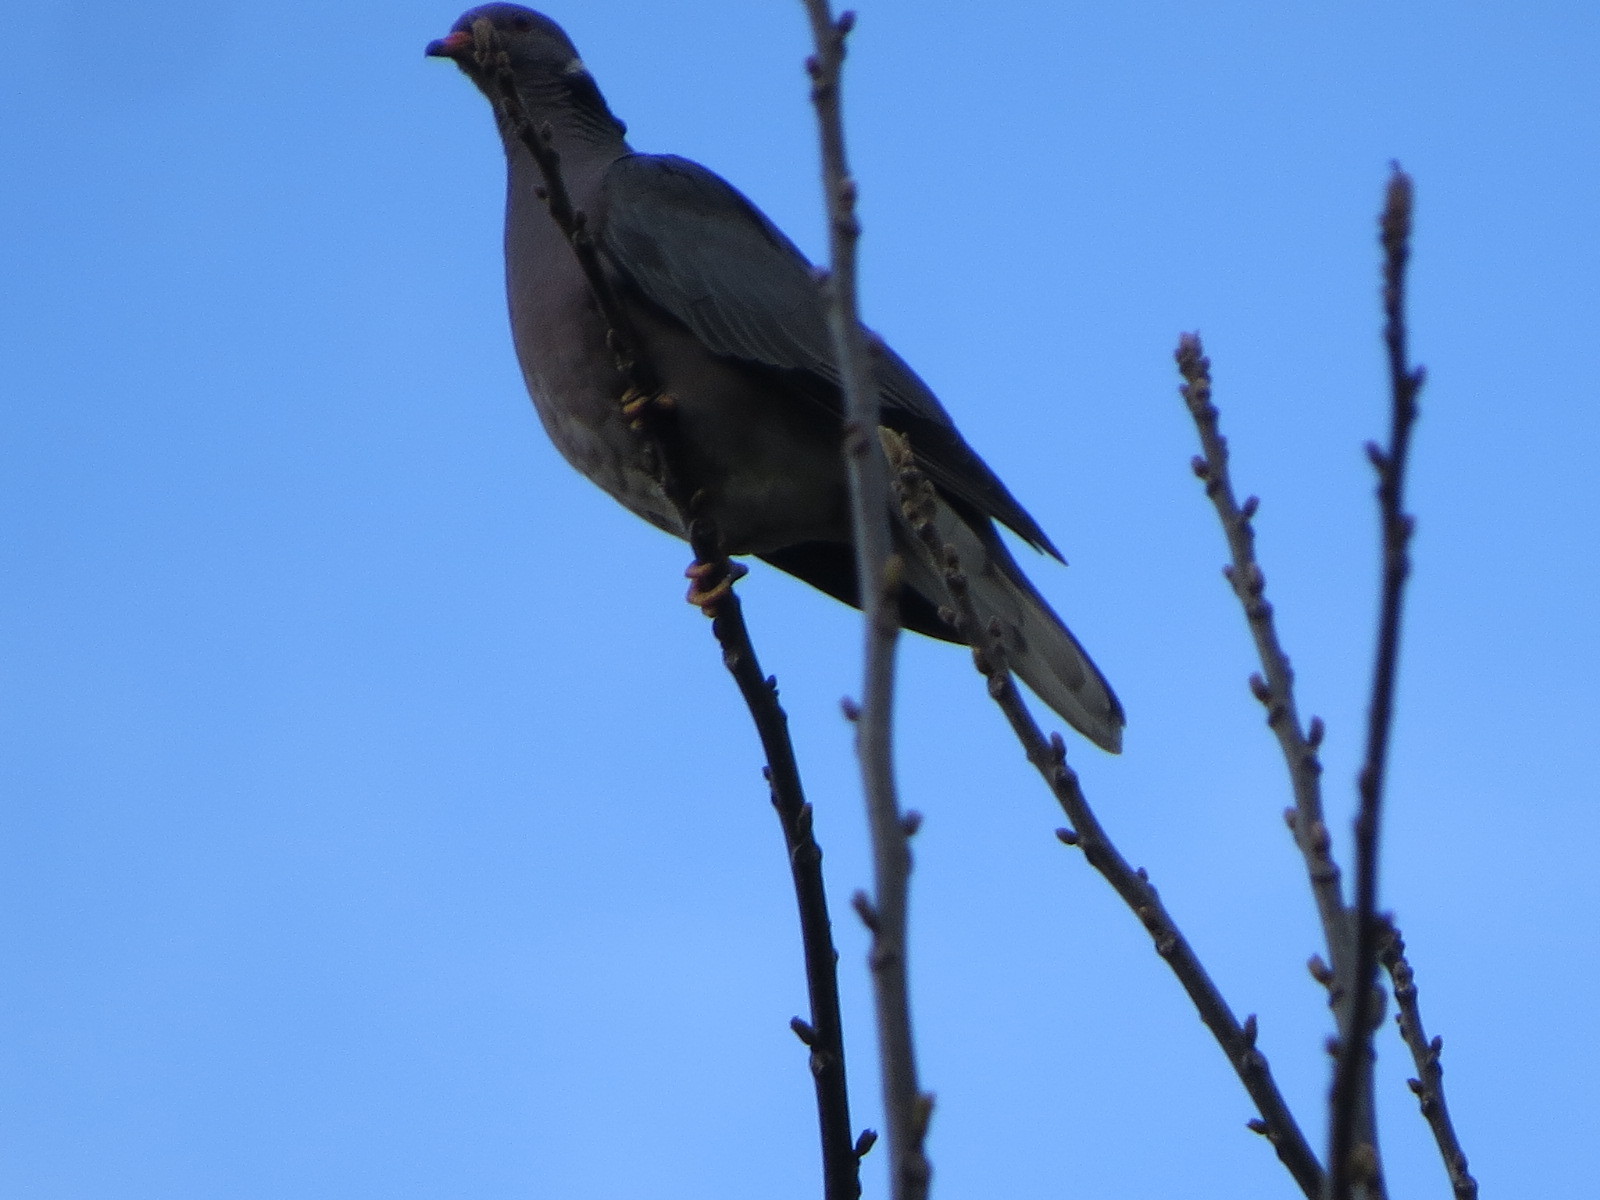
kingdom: Animalia
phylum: Chordata
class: Aves
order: Columbiformes
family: Columbidae
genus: Patagioenas
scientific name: Patagioenas fasciata
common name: Band-tailed pigeon
